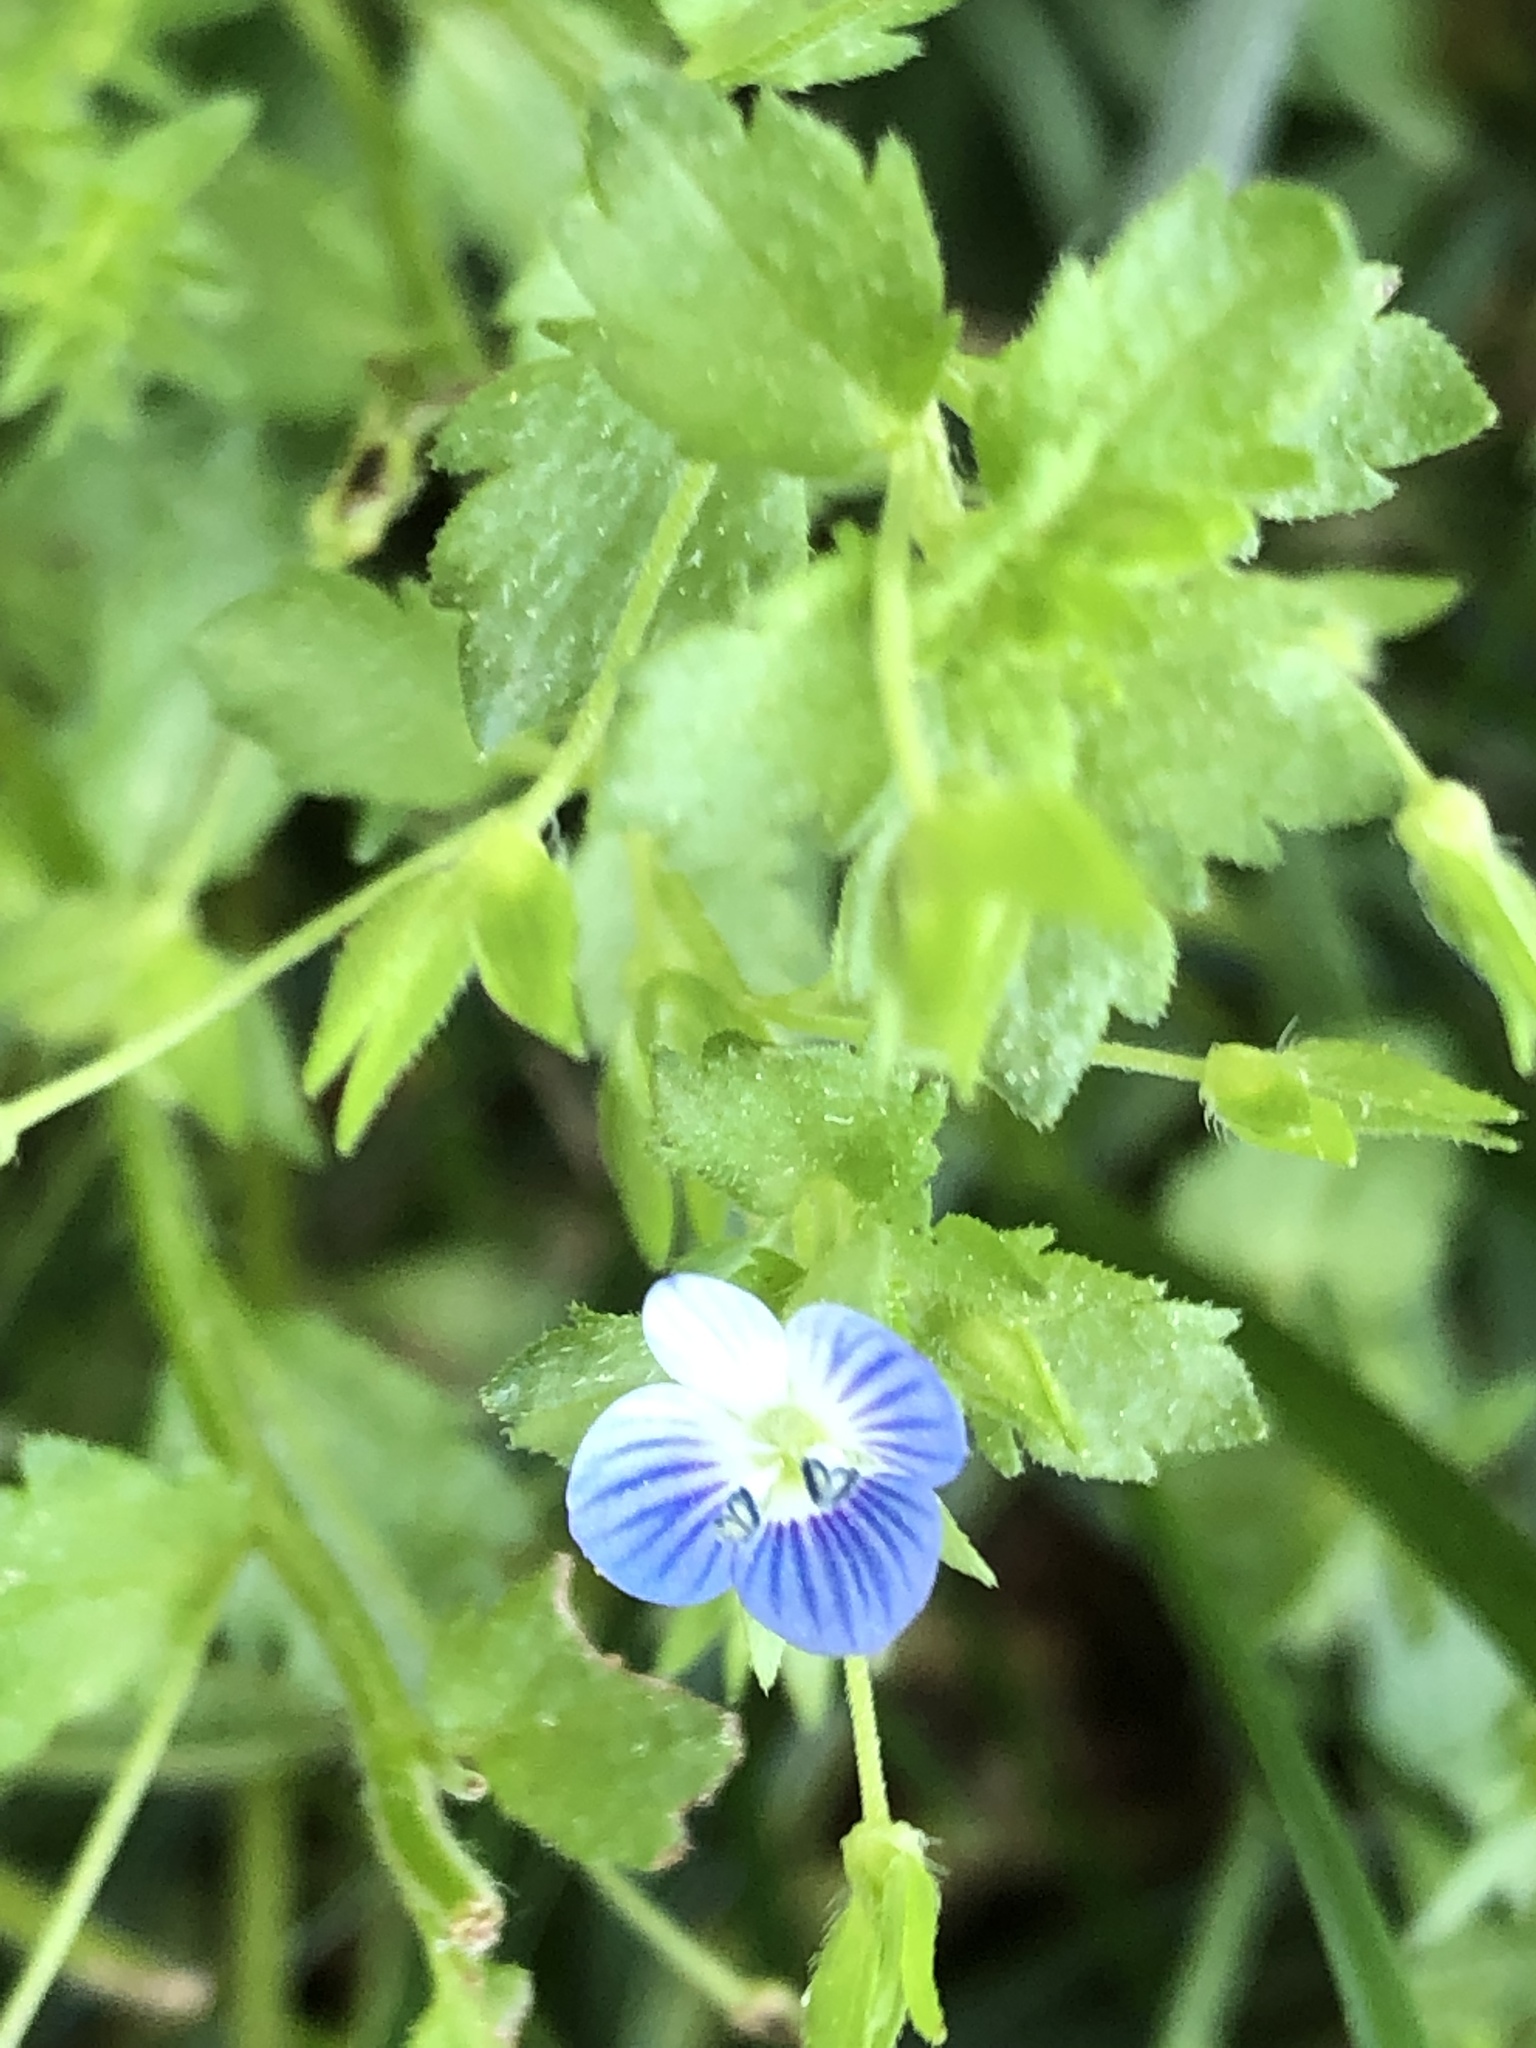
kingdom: Plantae
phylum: Tracheophyta
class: Magnoliopsida
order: Lamiales
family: Plantaginaceae
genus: Veronica
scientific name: Veronica persica
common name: Common field-speedwell
